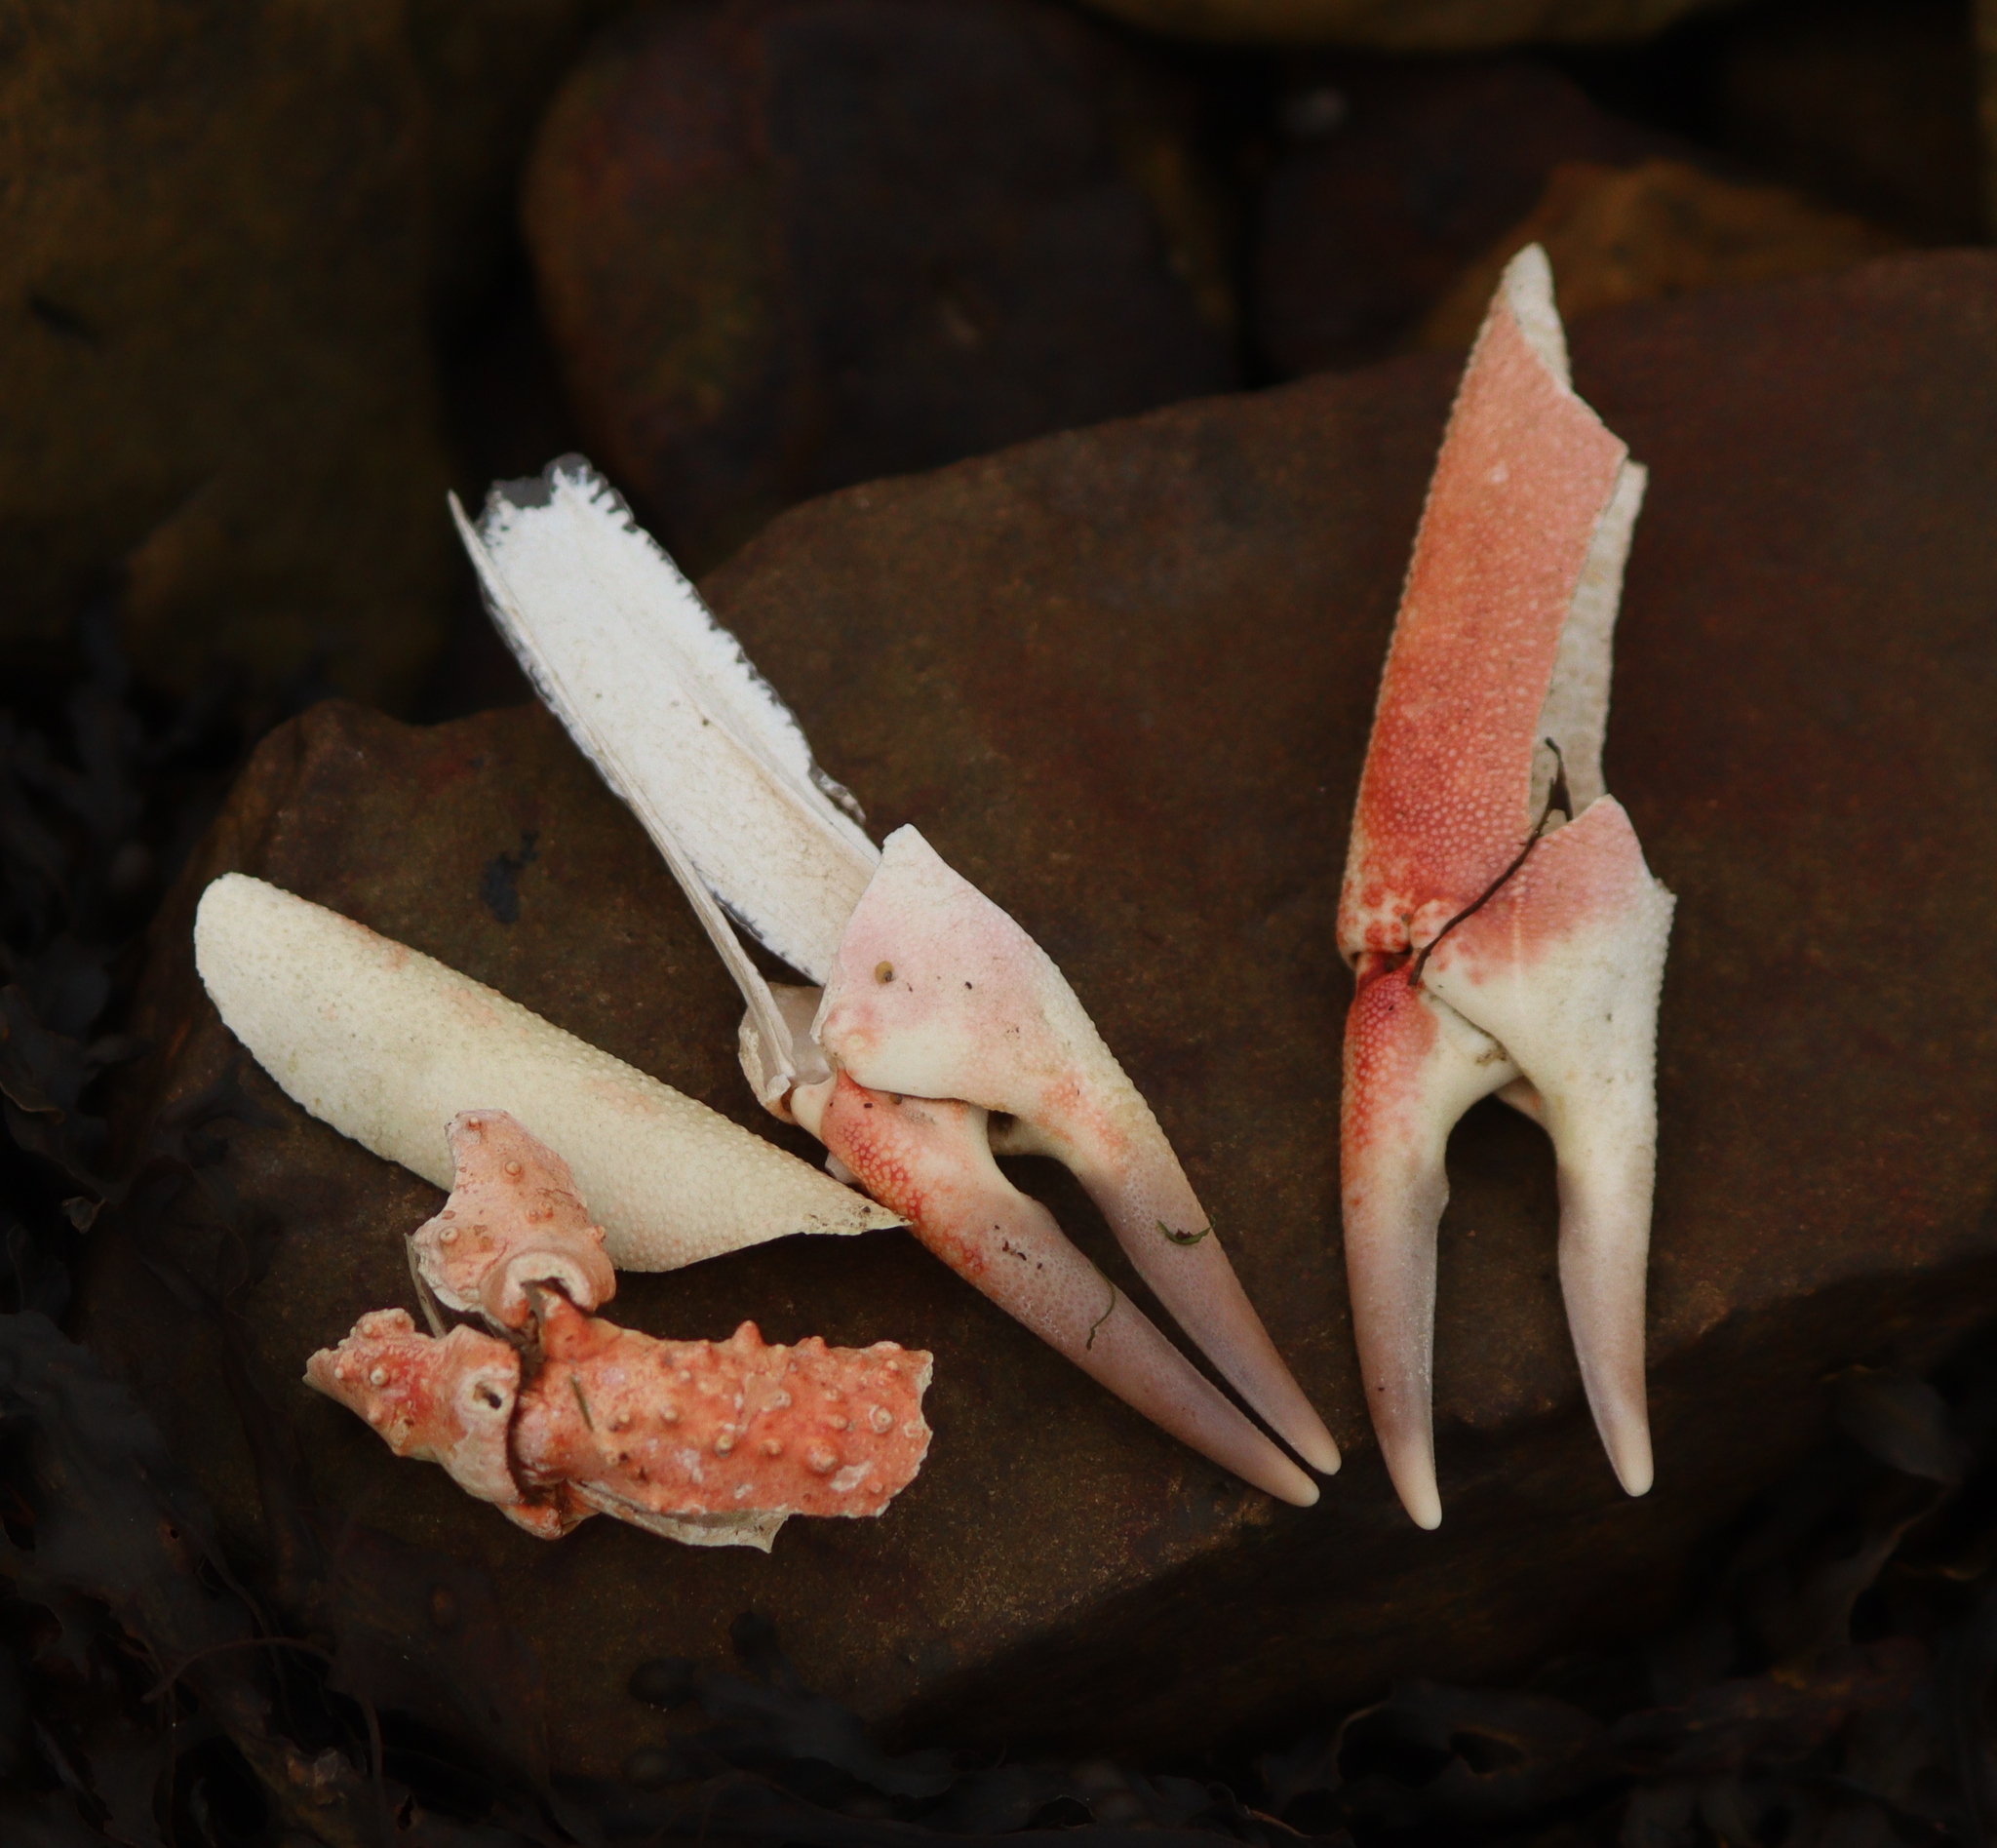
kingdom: Animalia
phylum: Arthropoda
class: Malacostraca
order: Decapoda
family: Majidae
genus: Maja
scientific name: Maja brachydactyla
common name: Common spider crab
